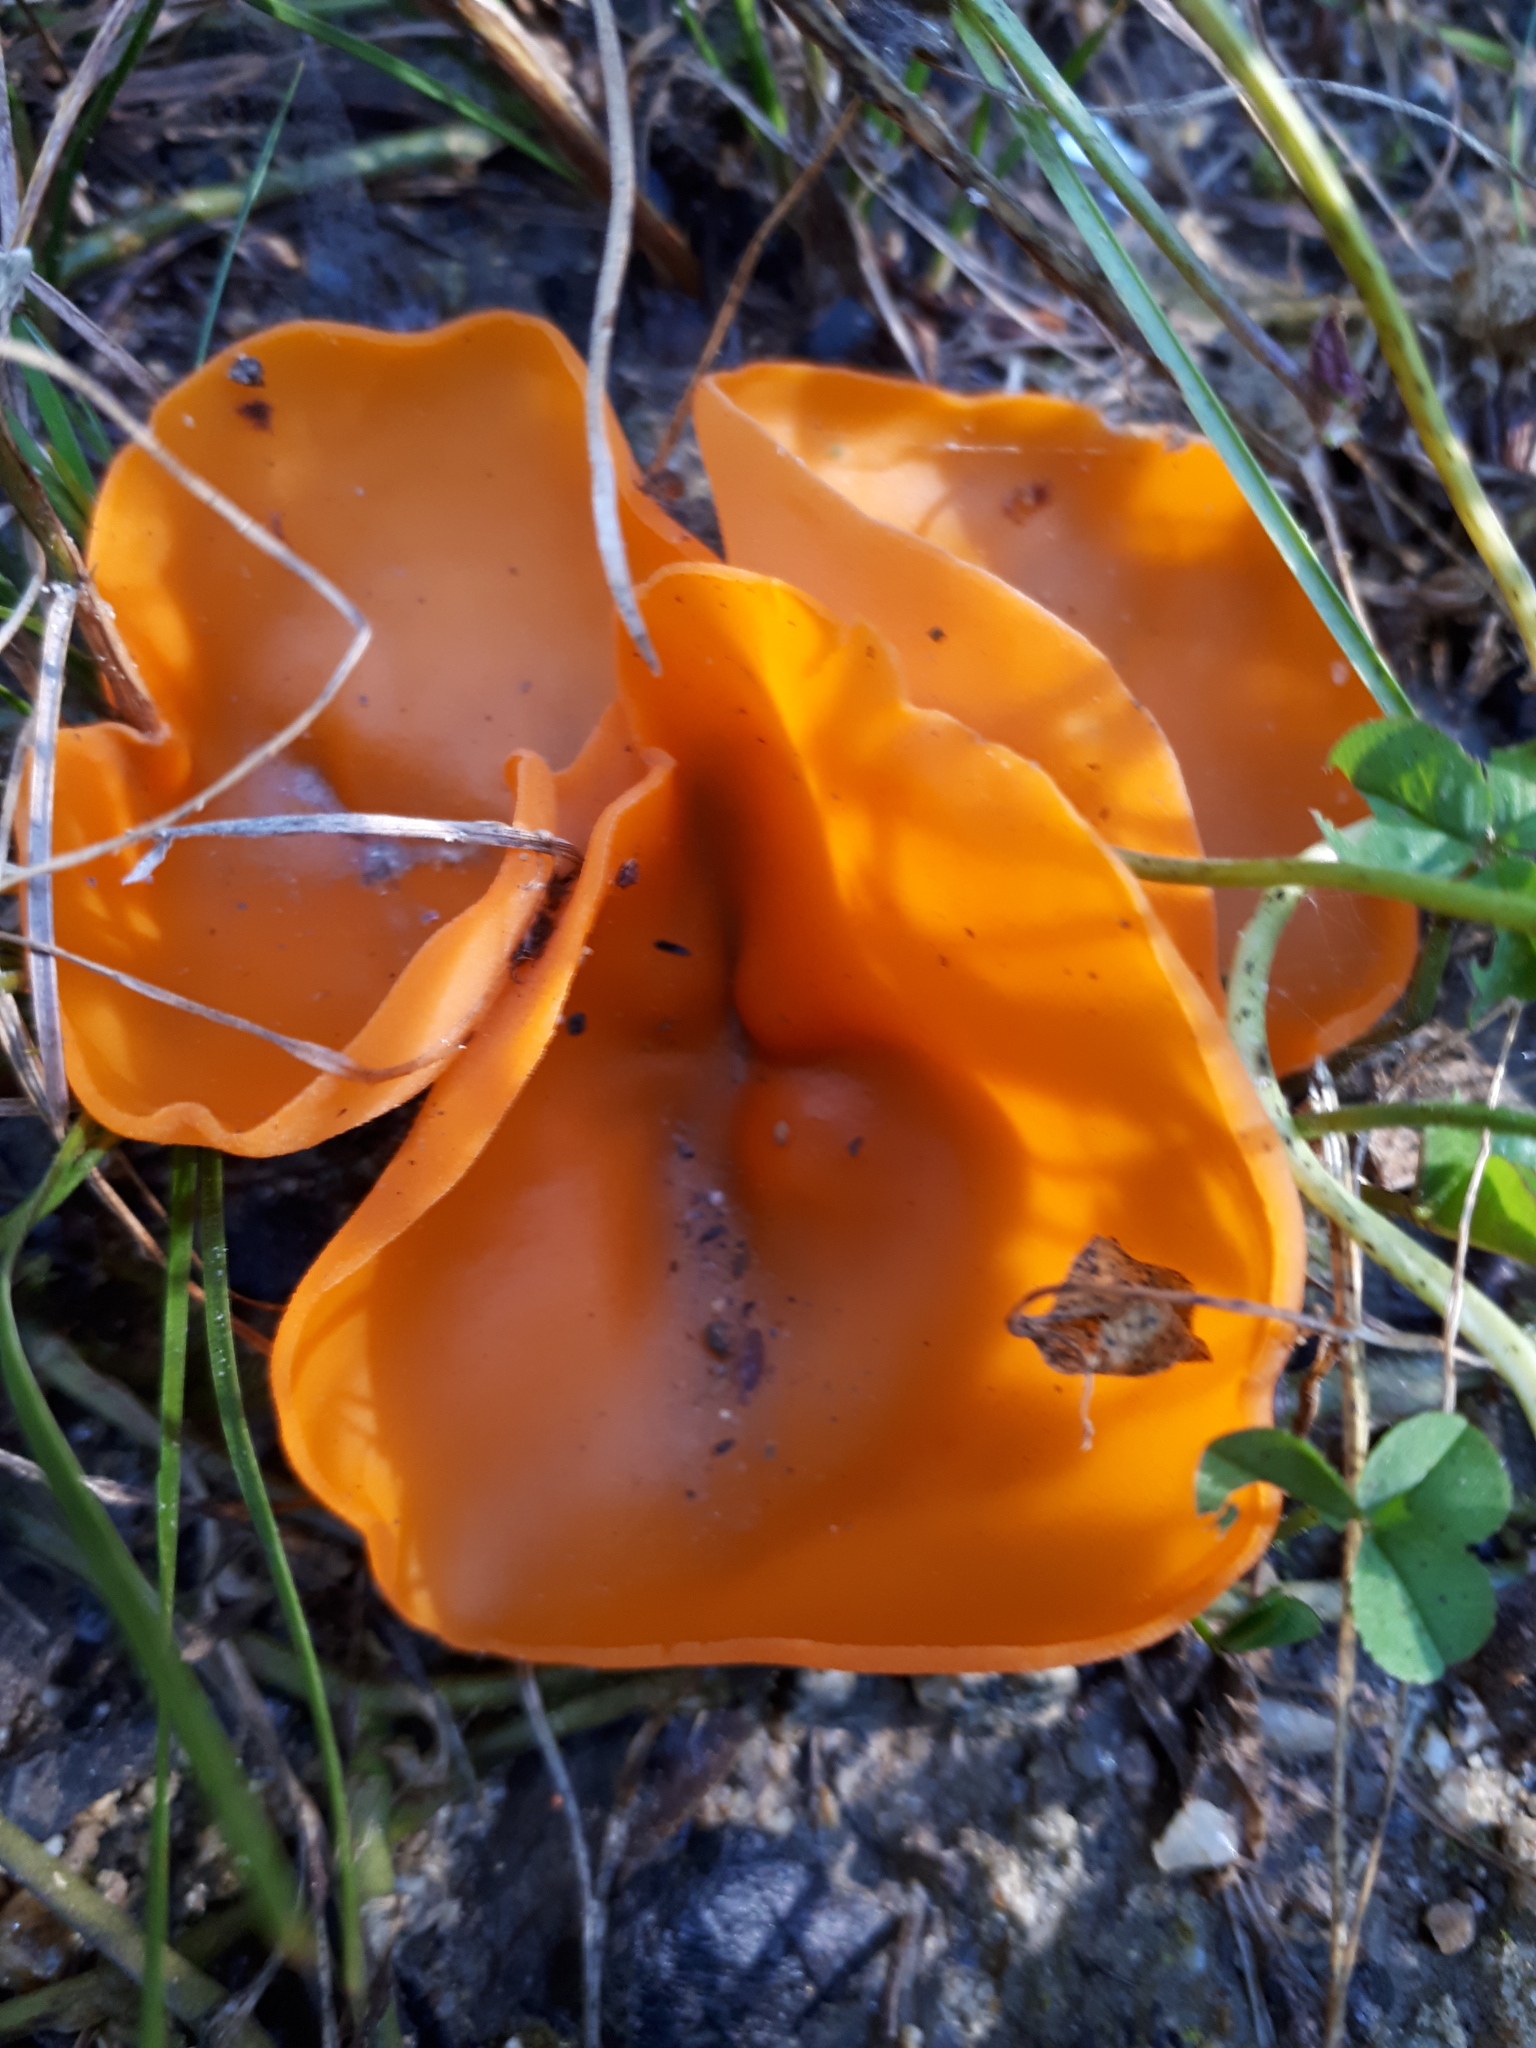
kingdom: Fungi
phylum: Ascomycota
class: Pezizomycetes
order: Pezizales
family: Pyronemataceae
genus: Aleuria
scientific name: Aleuria aurantia
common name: Orange peel fungus
